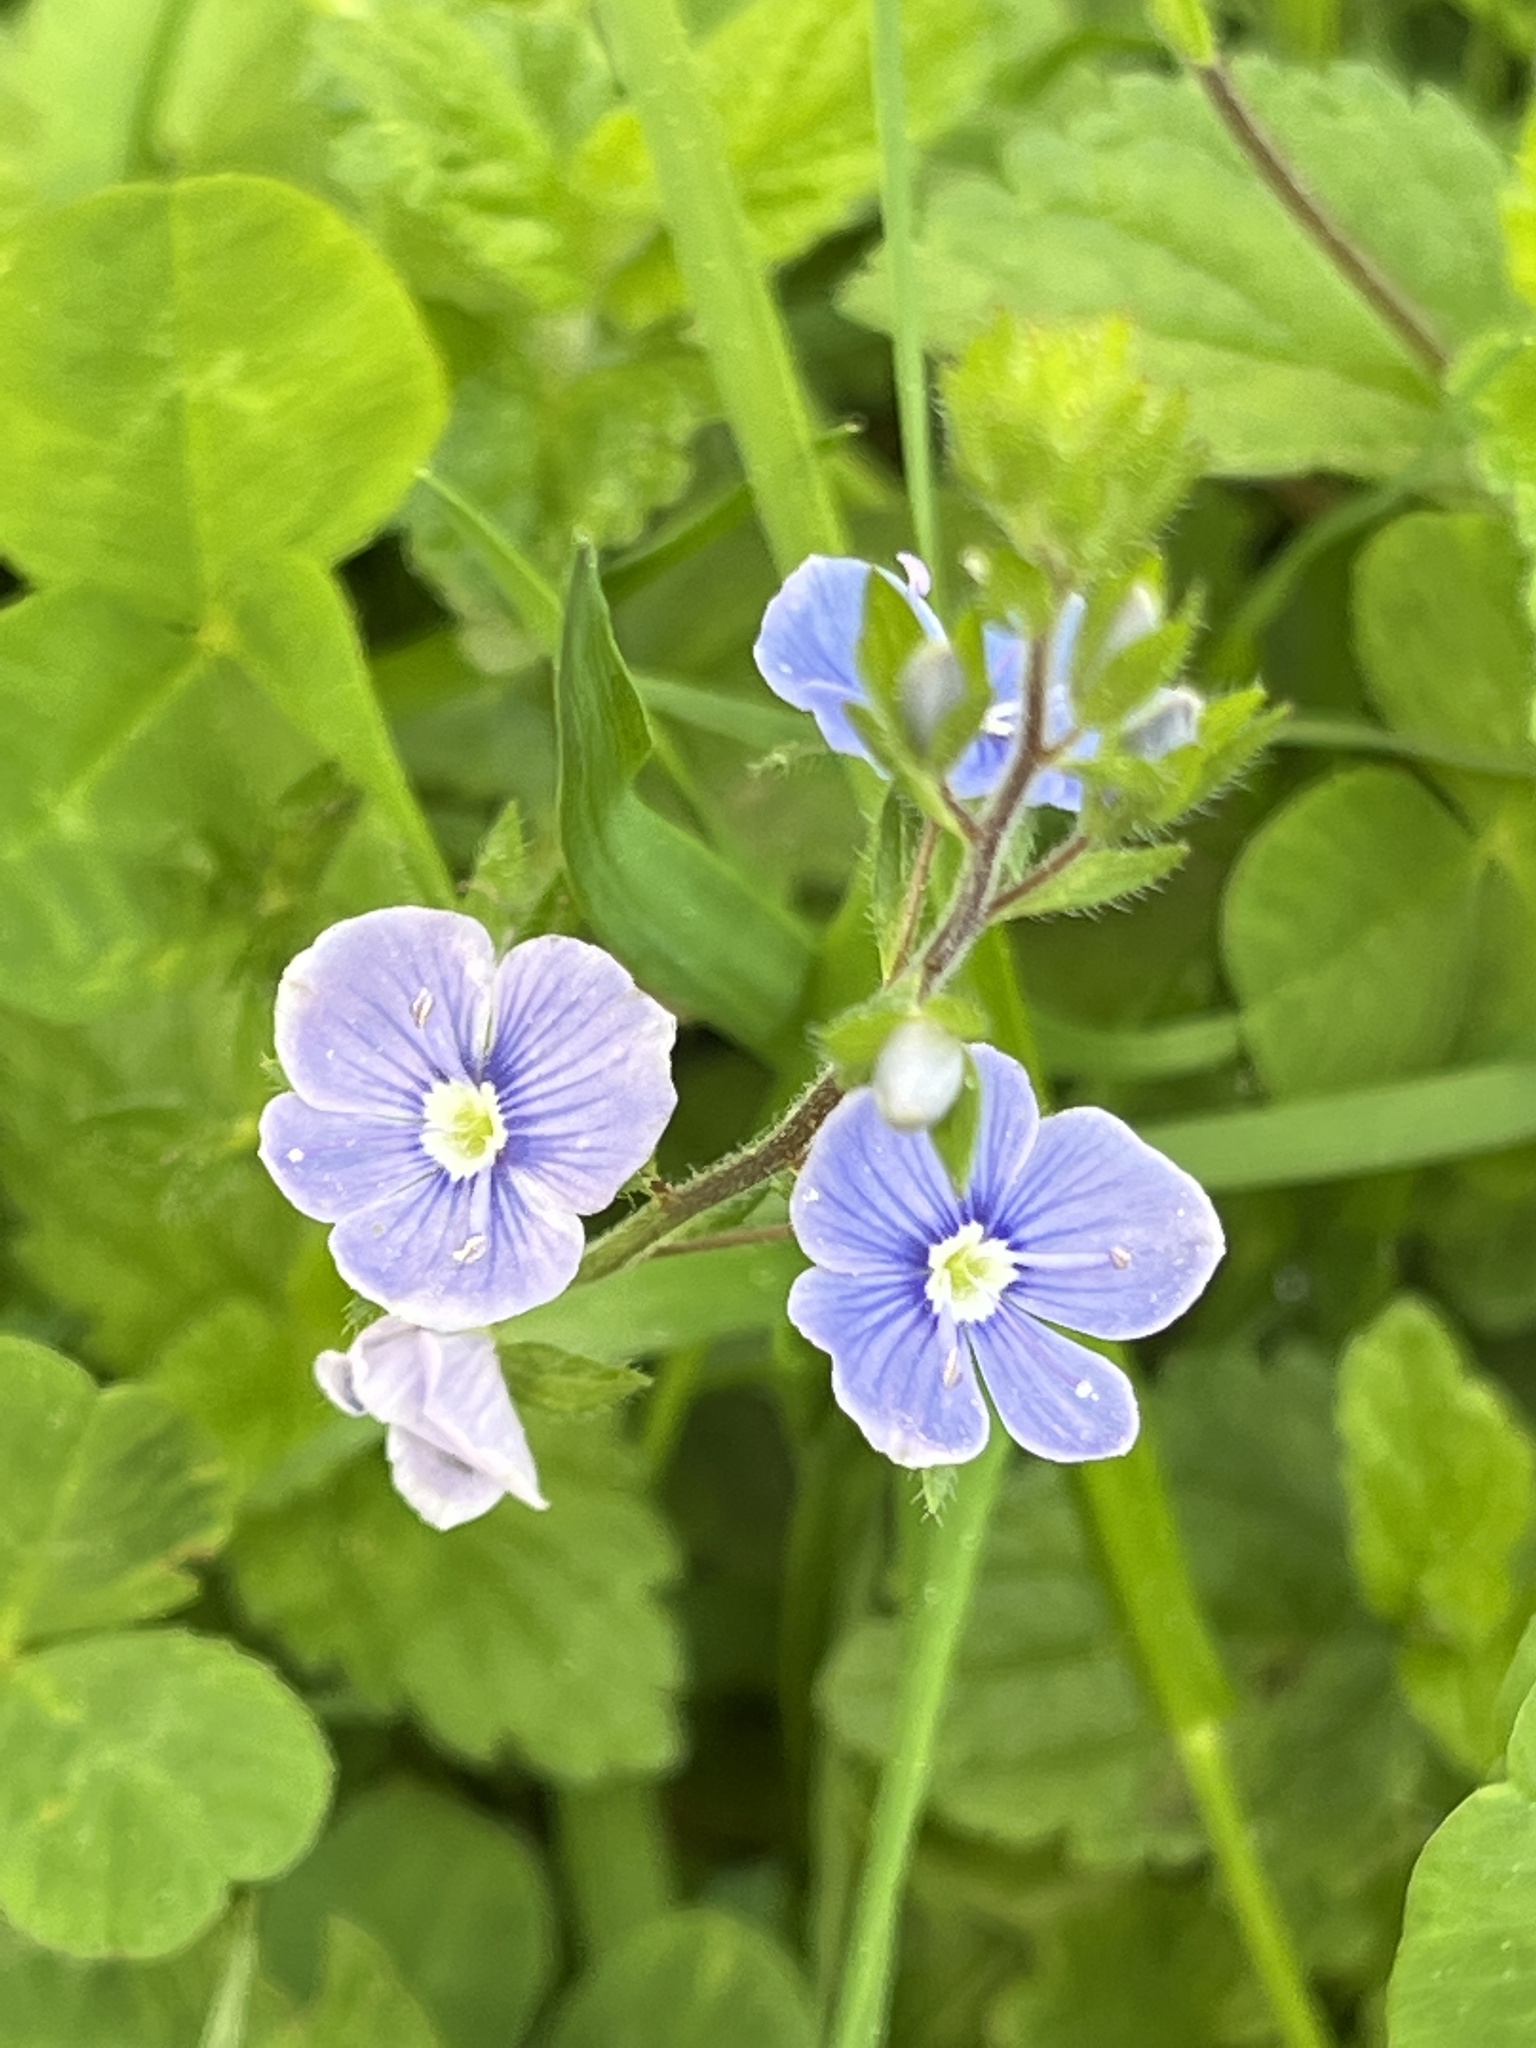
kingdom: Plantae
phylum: Tracheophyta
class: Magnoliopsida
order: Lamiales
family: Plantaginaceae
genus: Veronica
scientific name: Veronica chamaedrys
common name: Germander speedwell
